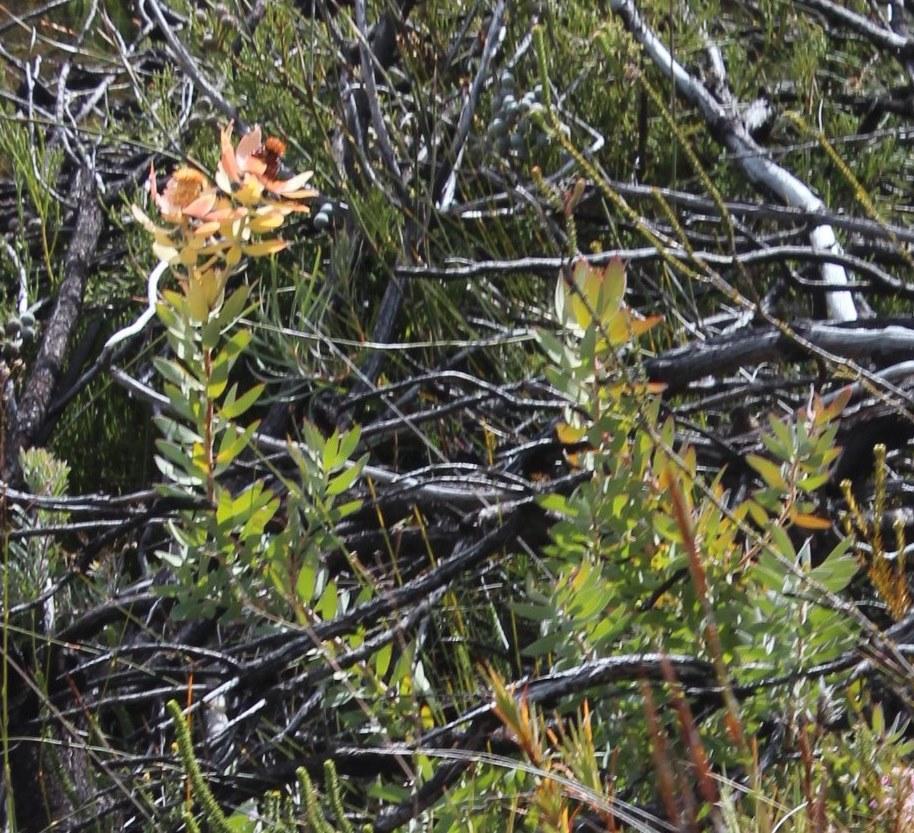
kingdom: Plantae
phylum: Tracheophyta
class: Magnoliopsida
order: Proteales
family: Proteaceae
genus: Leucadendron
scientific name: Leucadendron tinctum
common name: Spicy conebush
